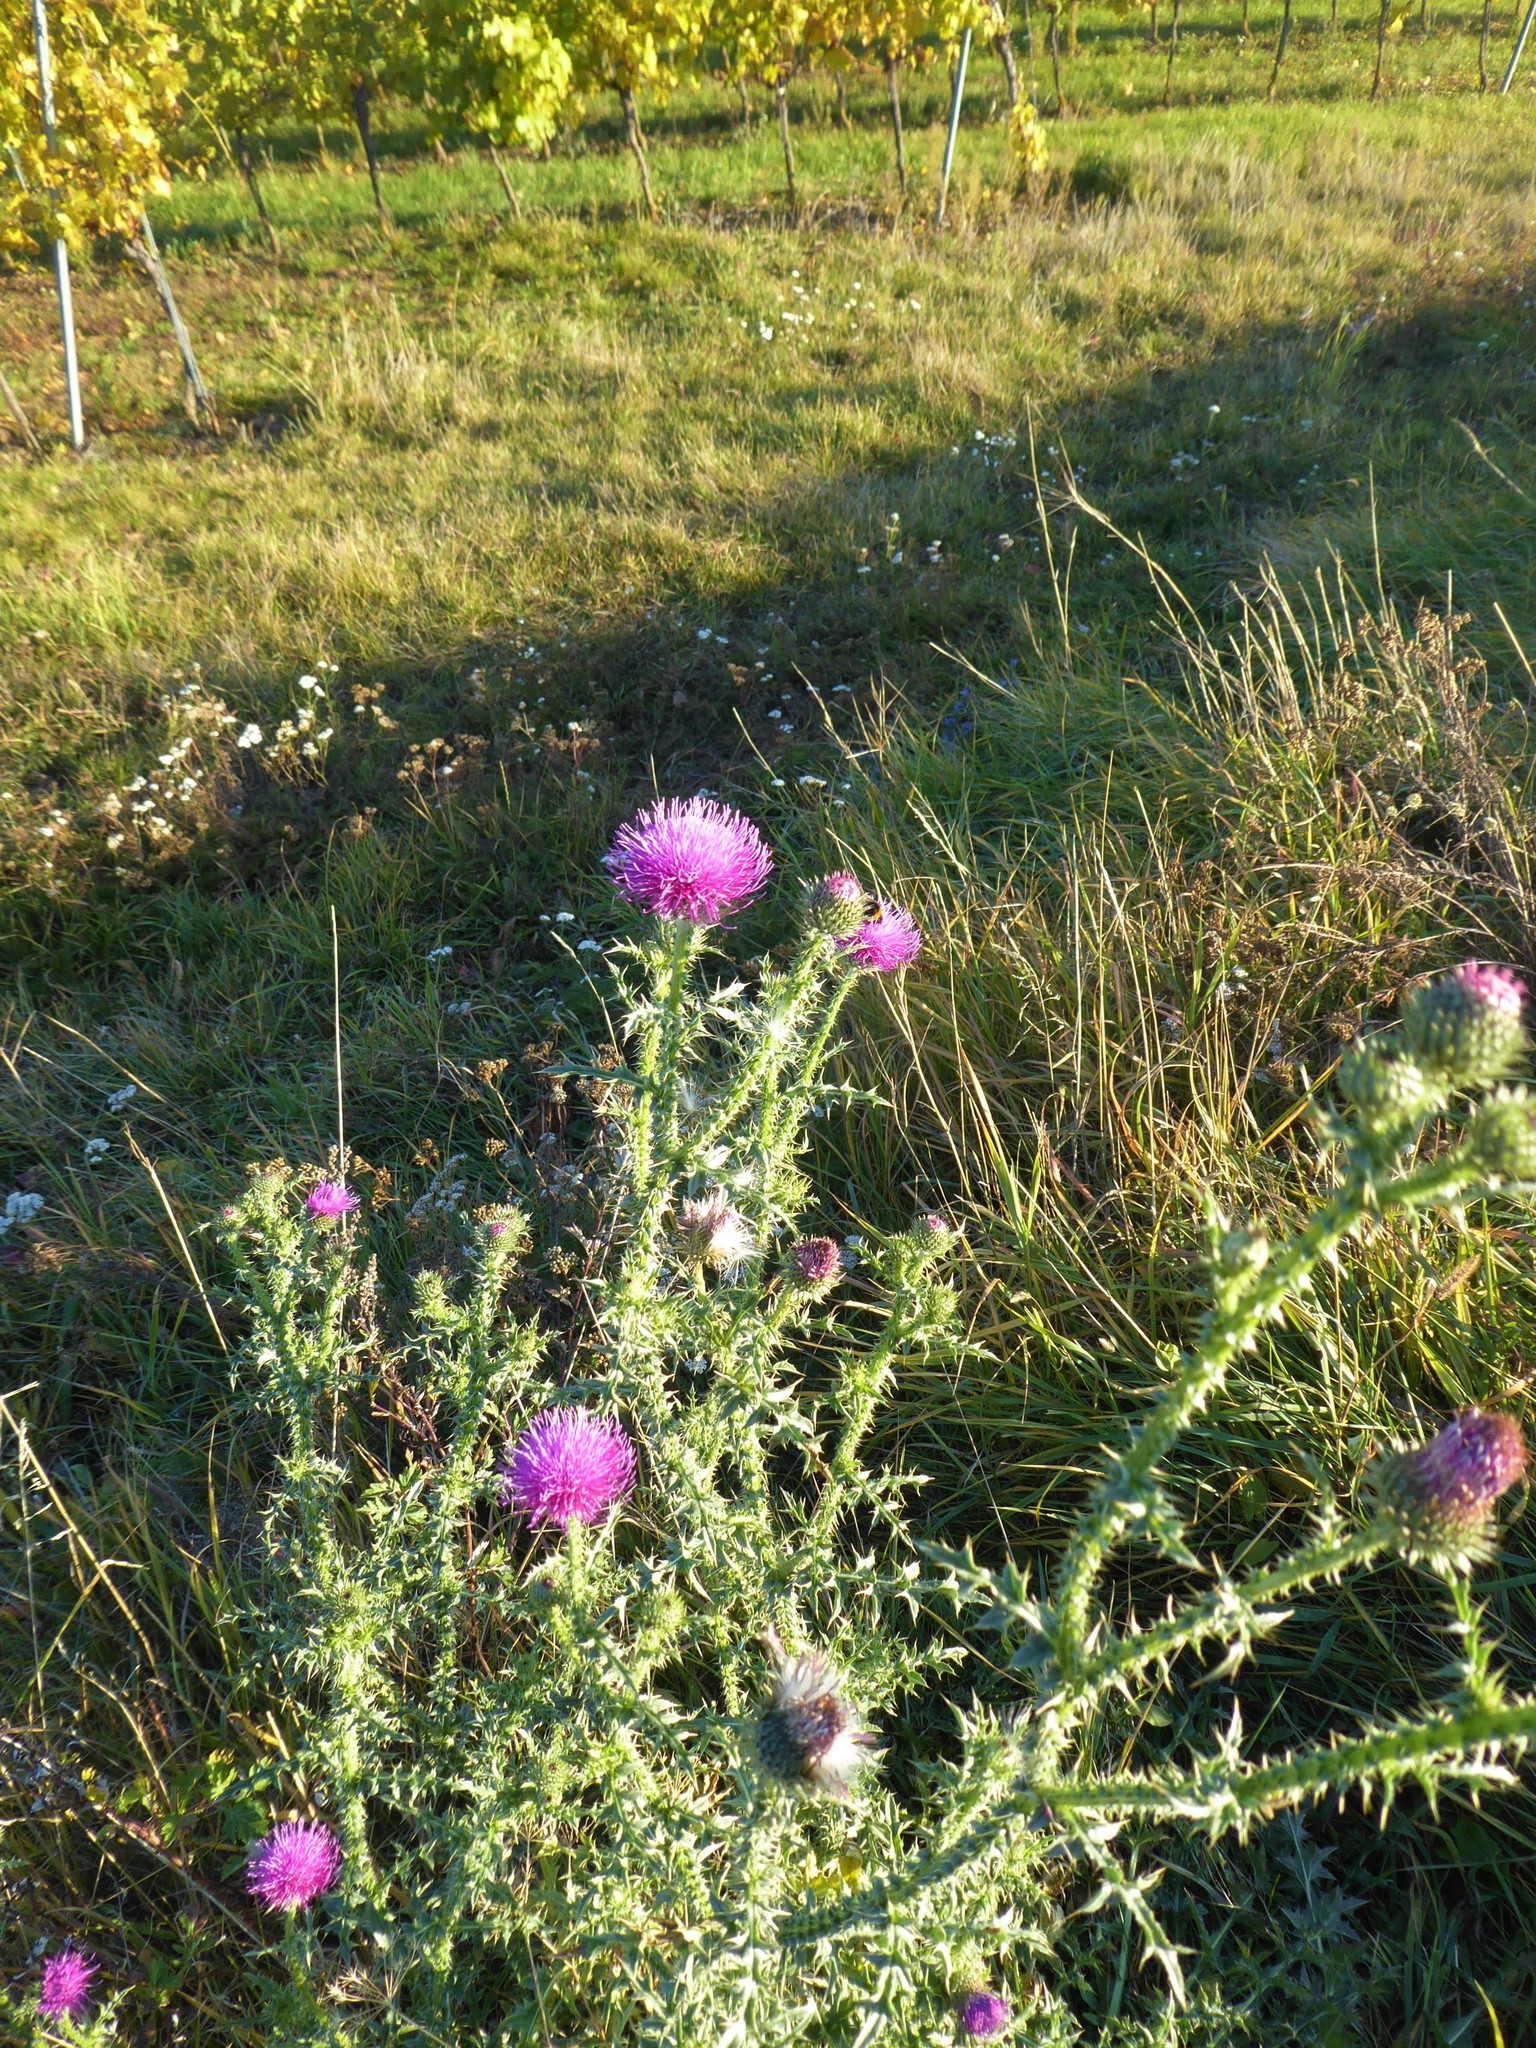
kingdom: Plantae
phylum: Tracheophyta
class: Magnoliopsida
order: Asterales
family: Asteraceae
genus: Carduus
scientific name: Carduus acanthoides
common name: Plumeless thistle
